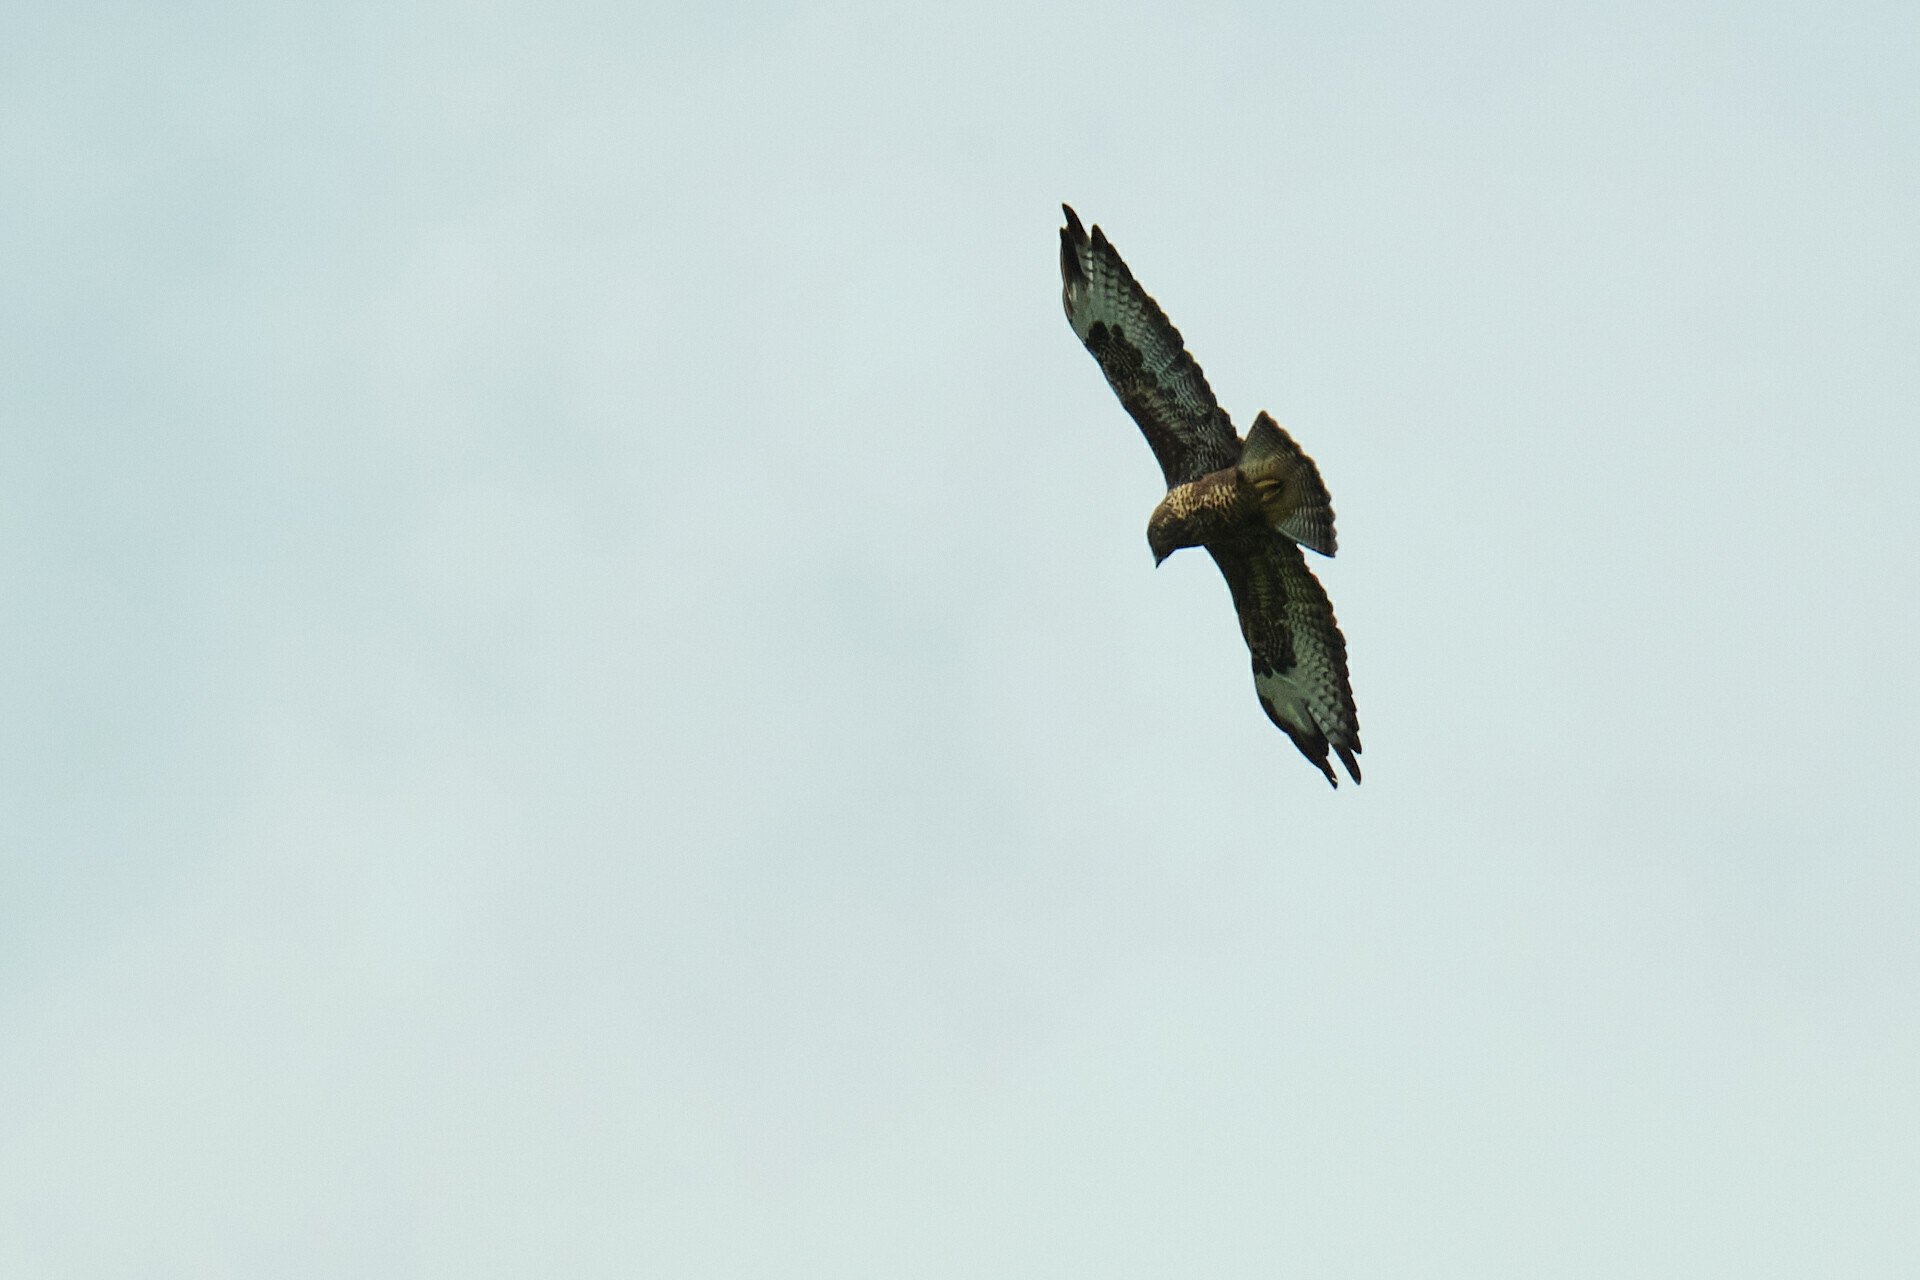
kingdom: Animalia
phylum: Chordata
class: Aves
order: Accipitriformes
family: Accipitridae
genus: Buteo
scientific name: Buteo buteo
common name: Common buzzard
